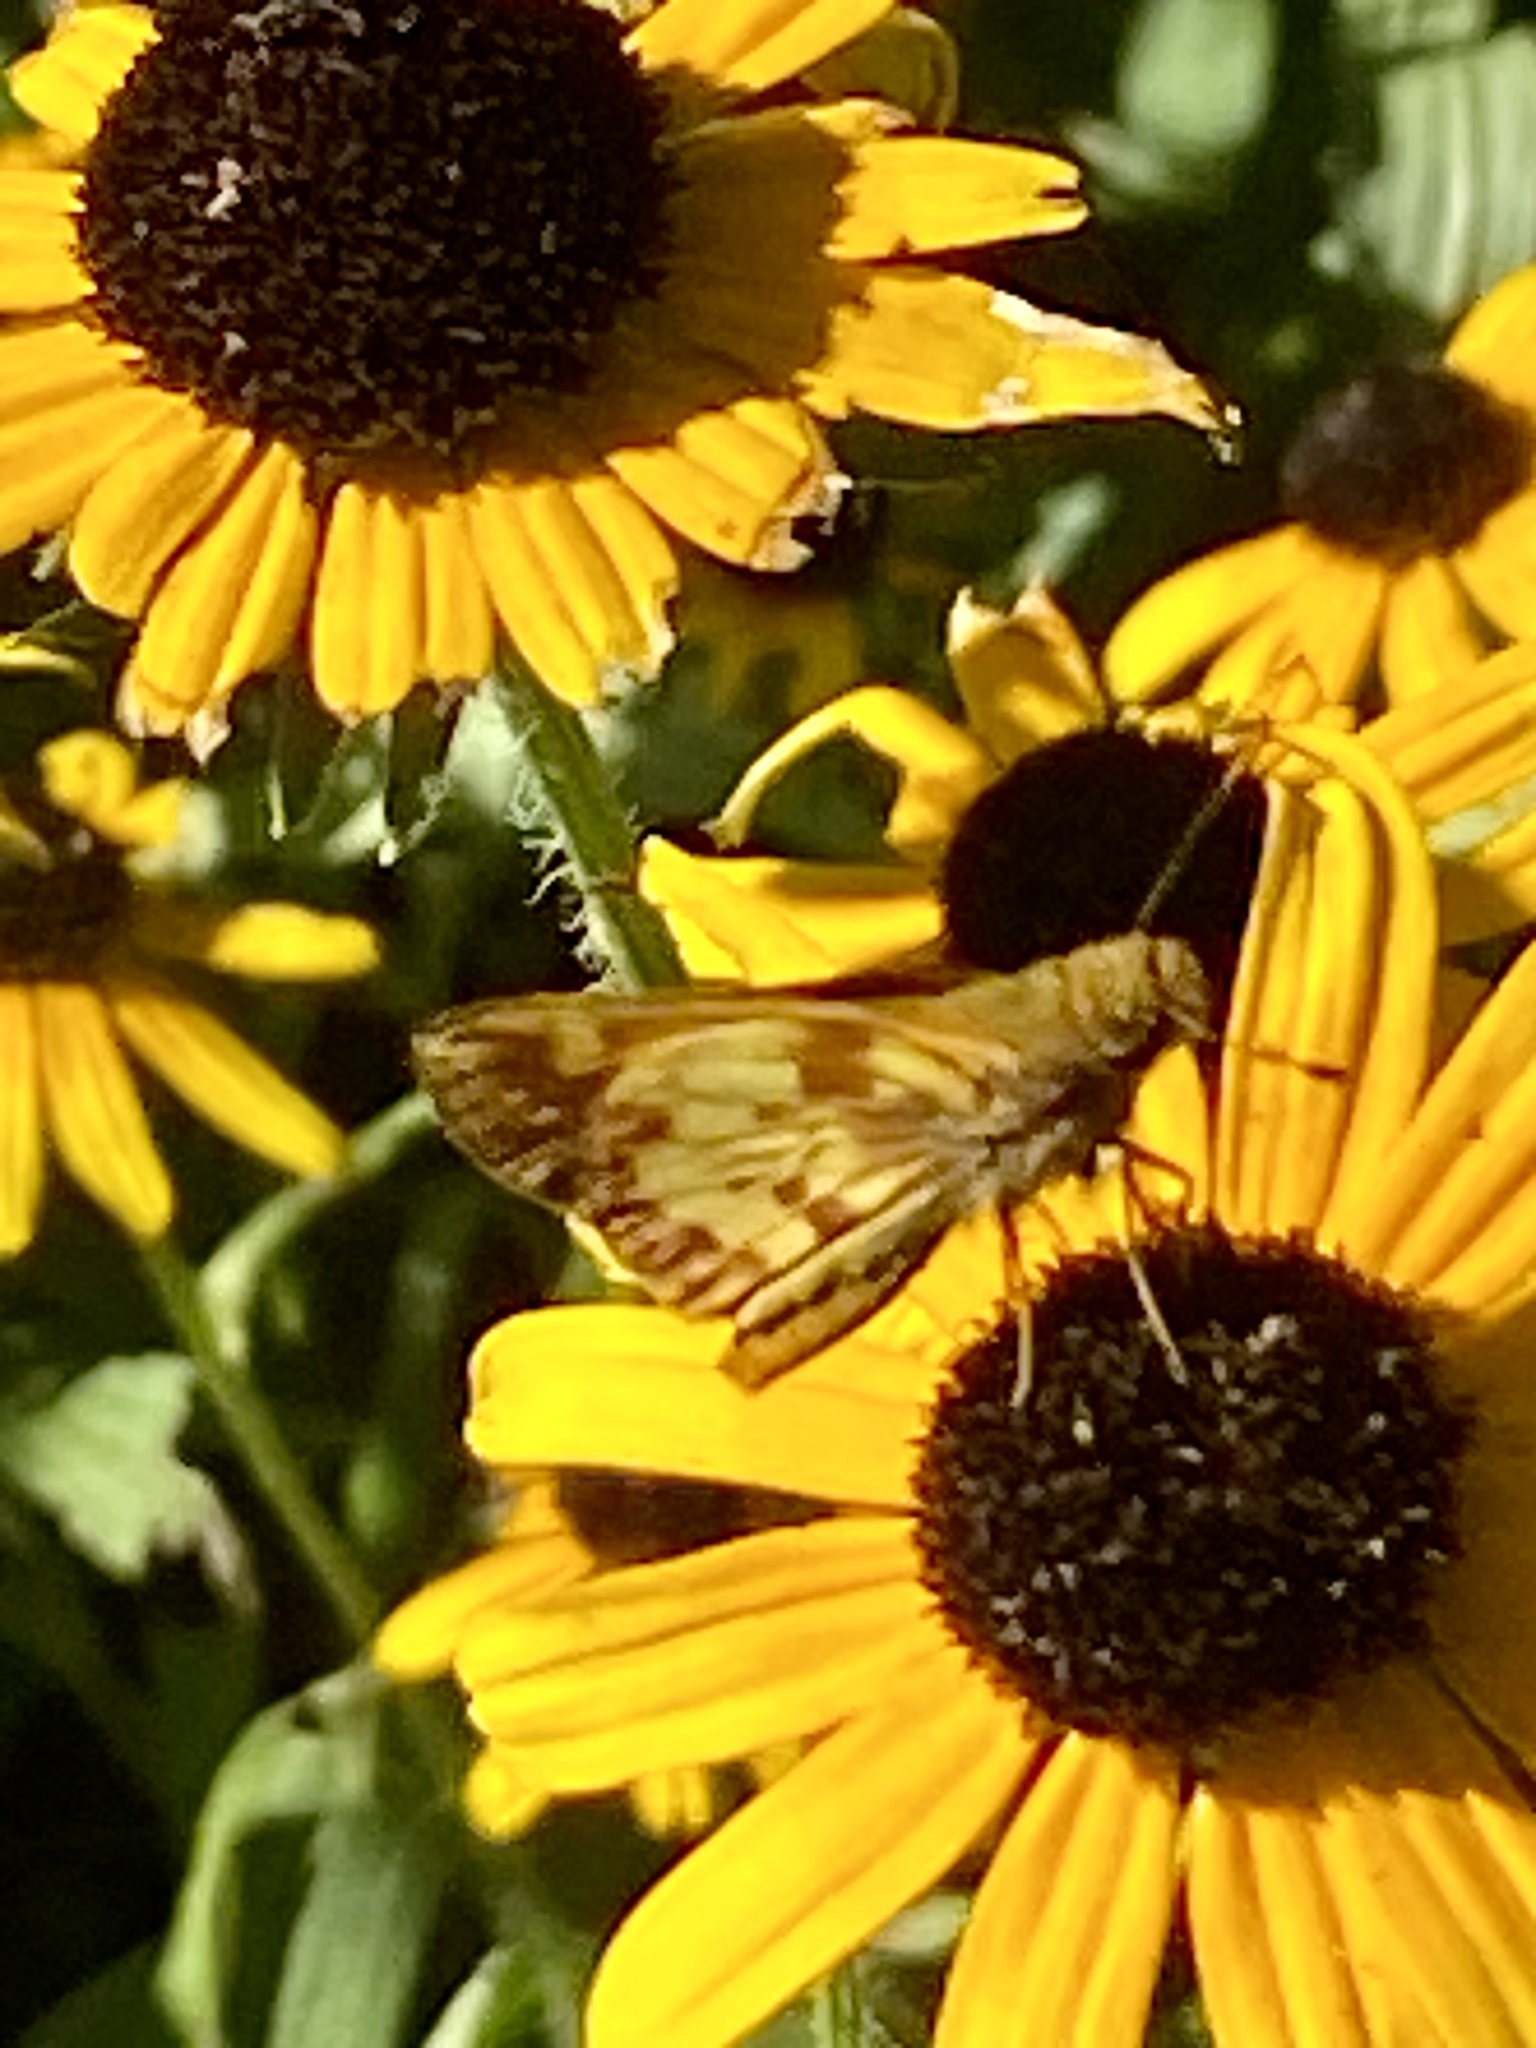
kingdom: Animalia
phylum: Arthropoda
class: Insecta
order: Lepidoptera
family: Hesperiidae
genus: Lon
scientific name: Lon zabulon
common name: Zabulon skipper
